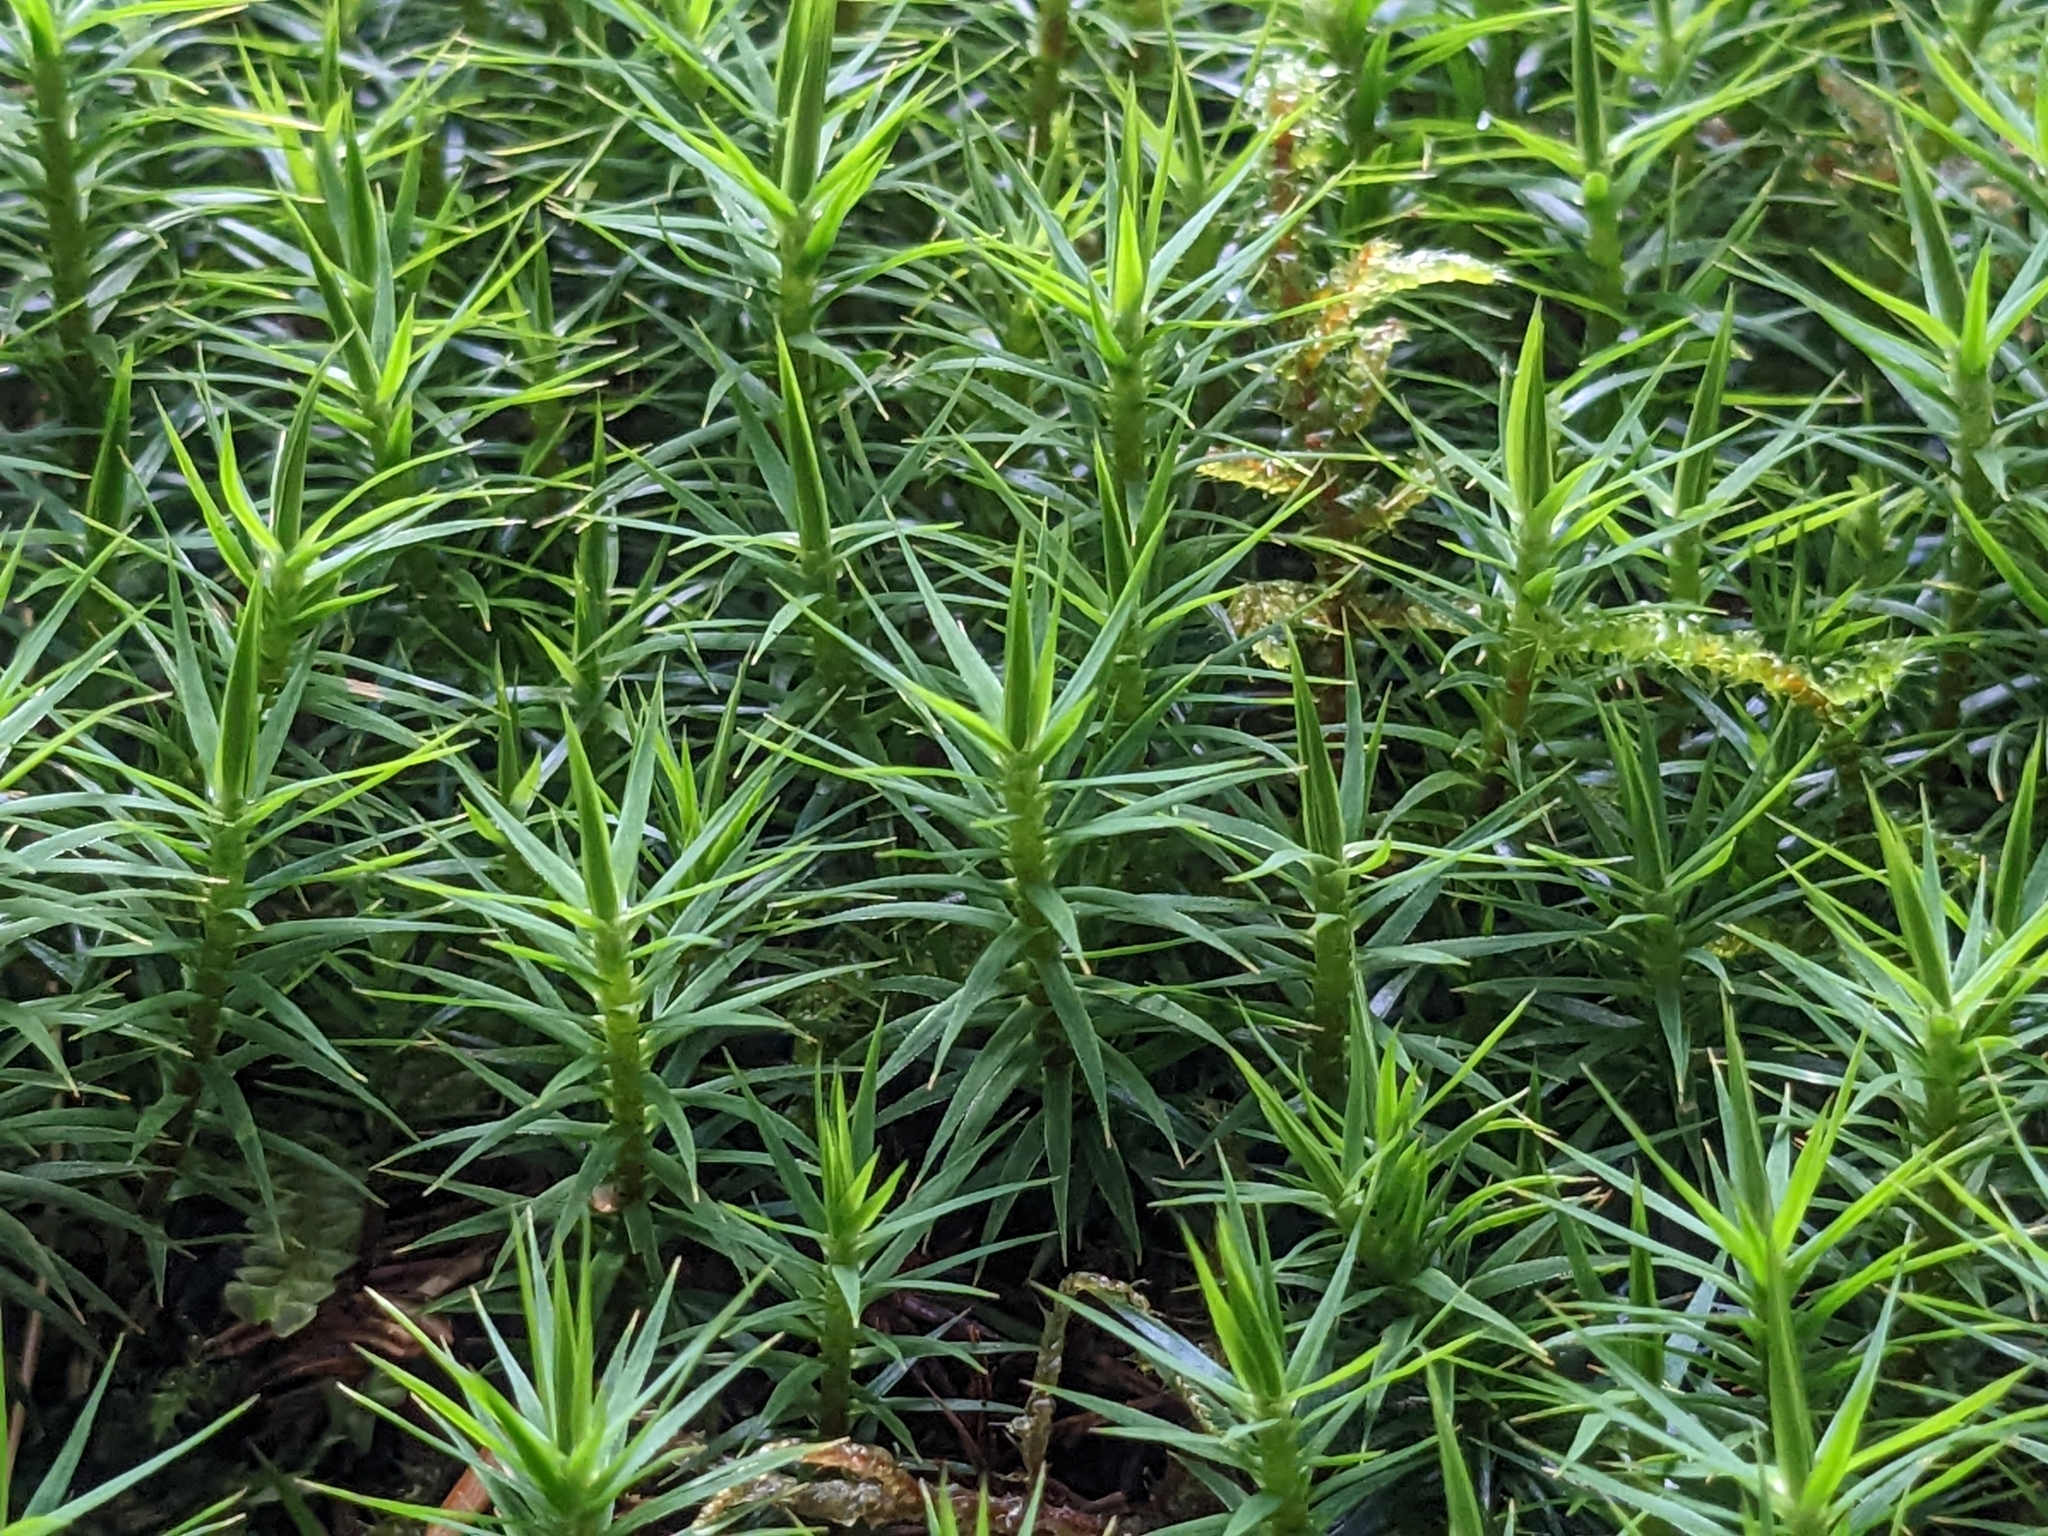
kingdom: Plantae
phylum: Bryophyta
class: Polytrichopsida
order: Polytrichales
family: Polytrichaceae
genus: Polytrichum
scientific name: Polytrichum formosum
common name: Bank haircap moss
